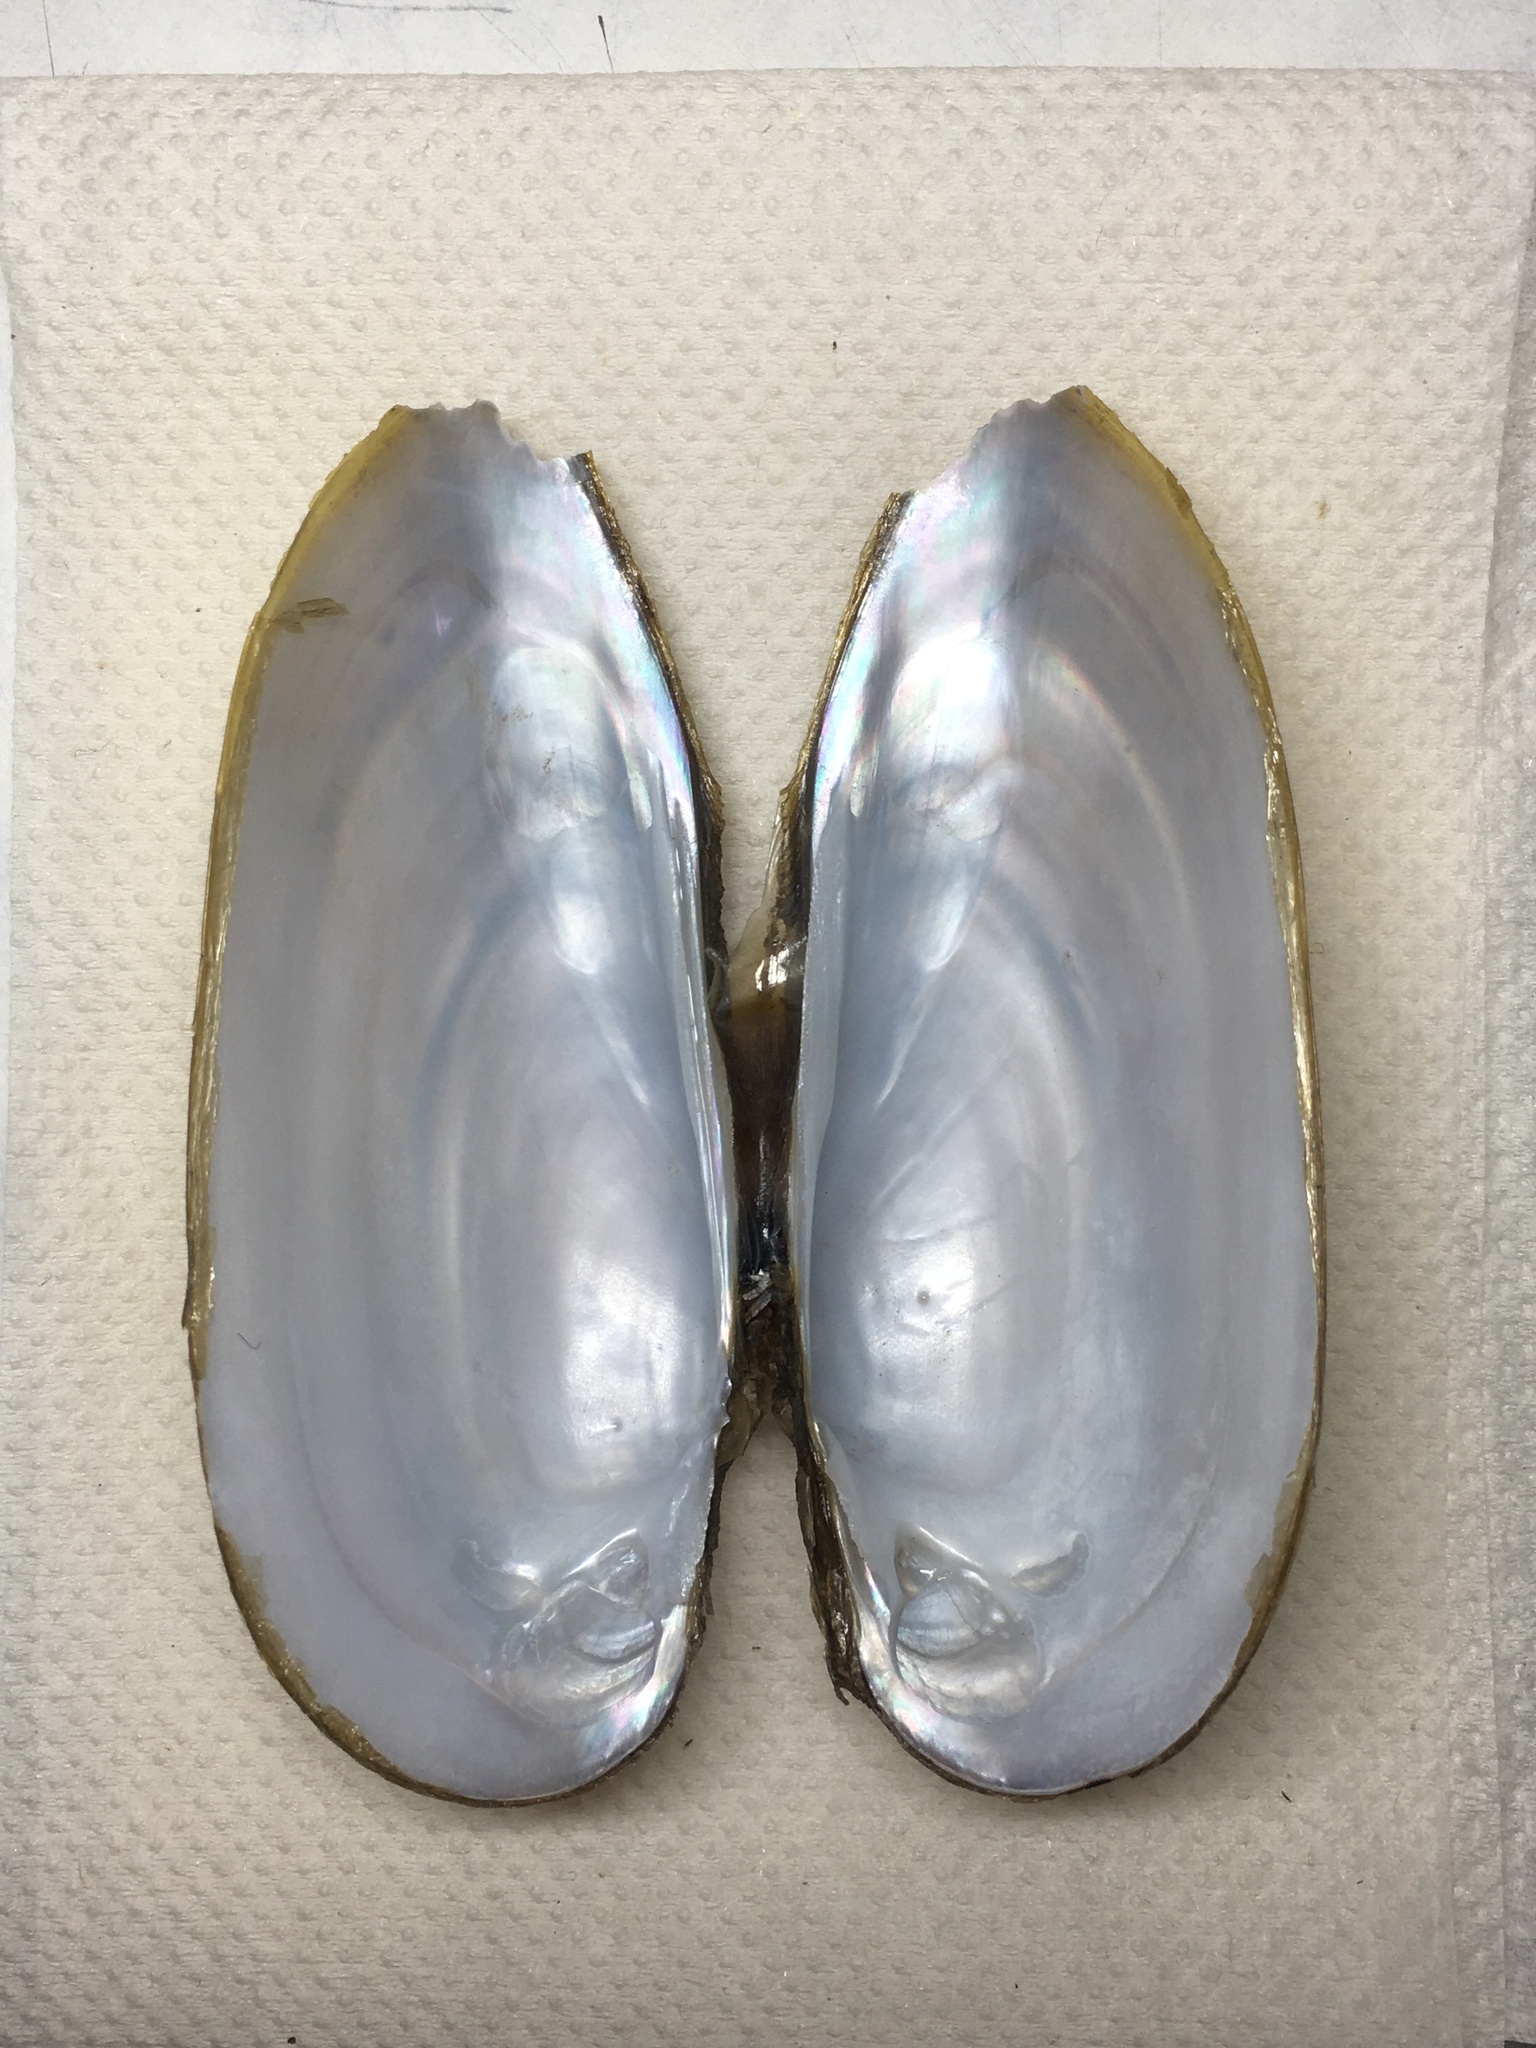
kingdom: Animalia
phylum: Mollusca
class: Bivalvia
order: Unionida
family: Unionidae
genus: Unio
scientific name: Unio pictorum
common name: Painter's mussel
